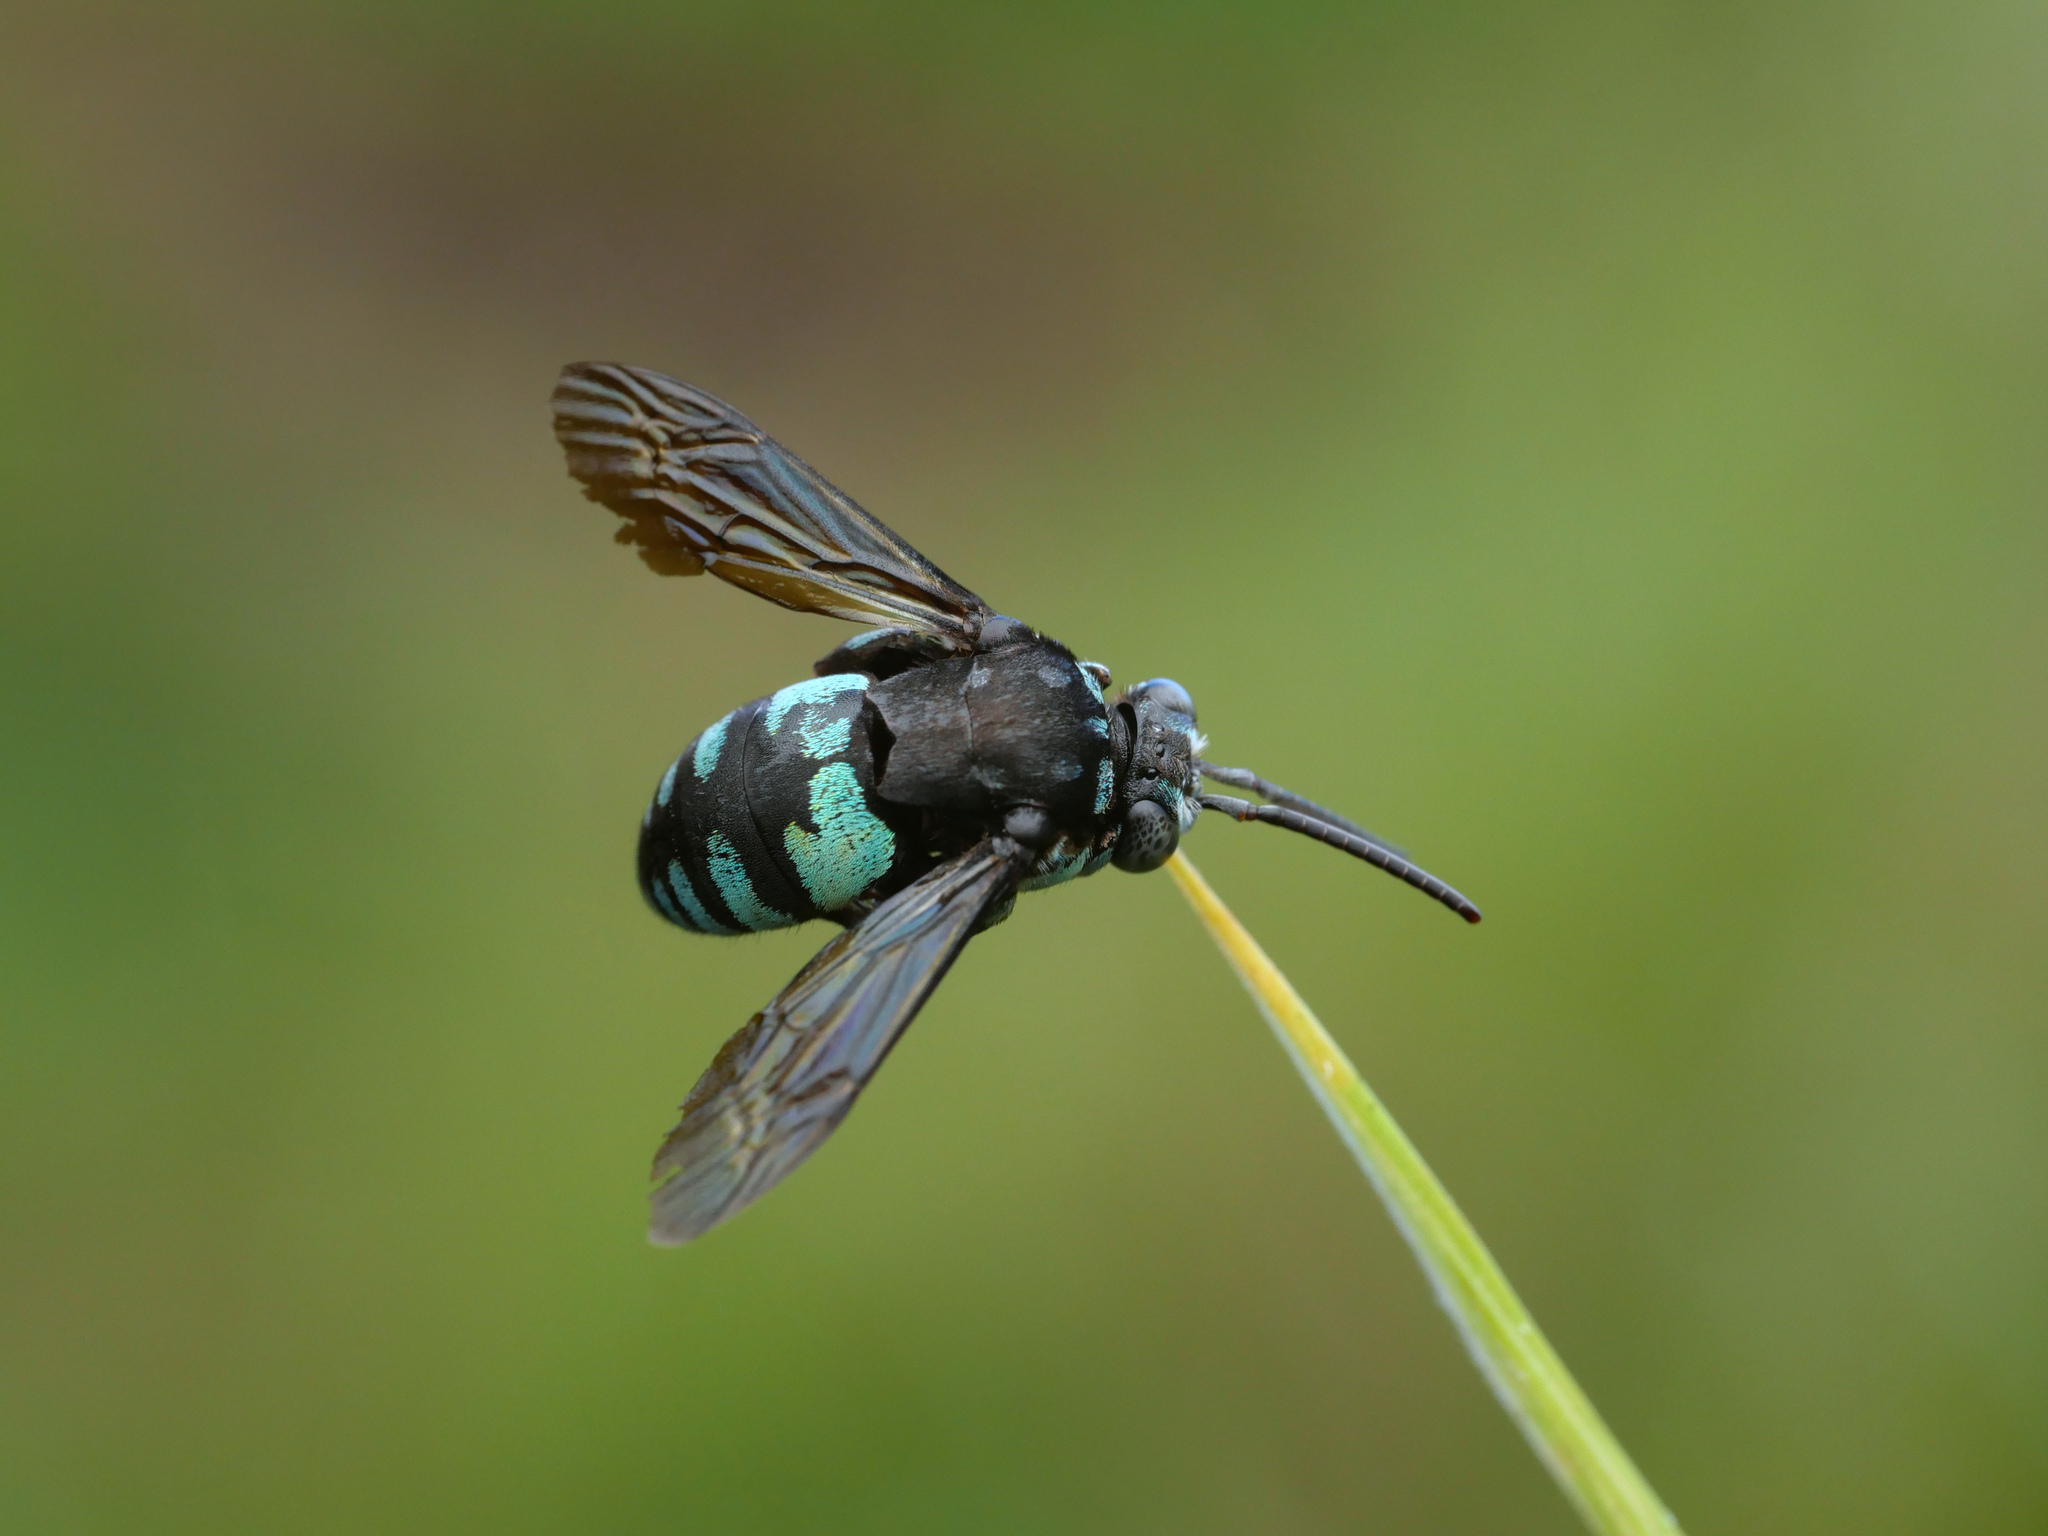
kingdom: Animalia
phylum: Arthropoda
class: Insecta
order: Hymenoptera
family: Apidae
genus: Thyreus
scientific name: Thyreus nitidulus
